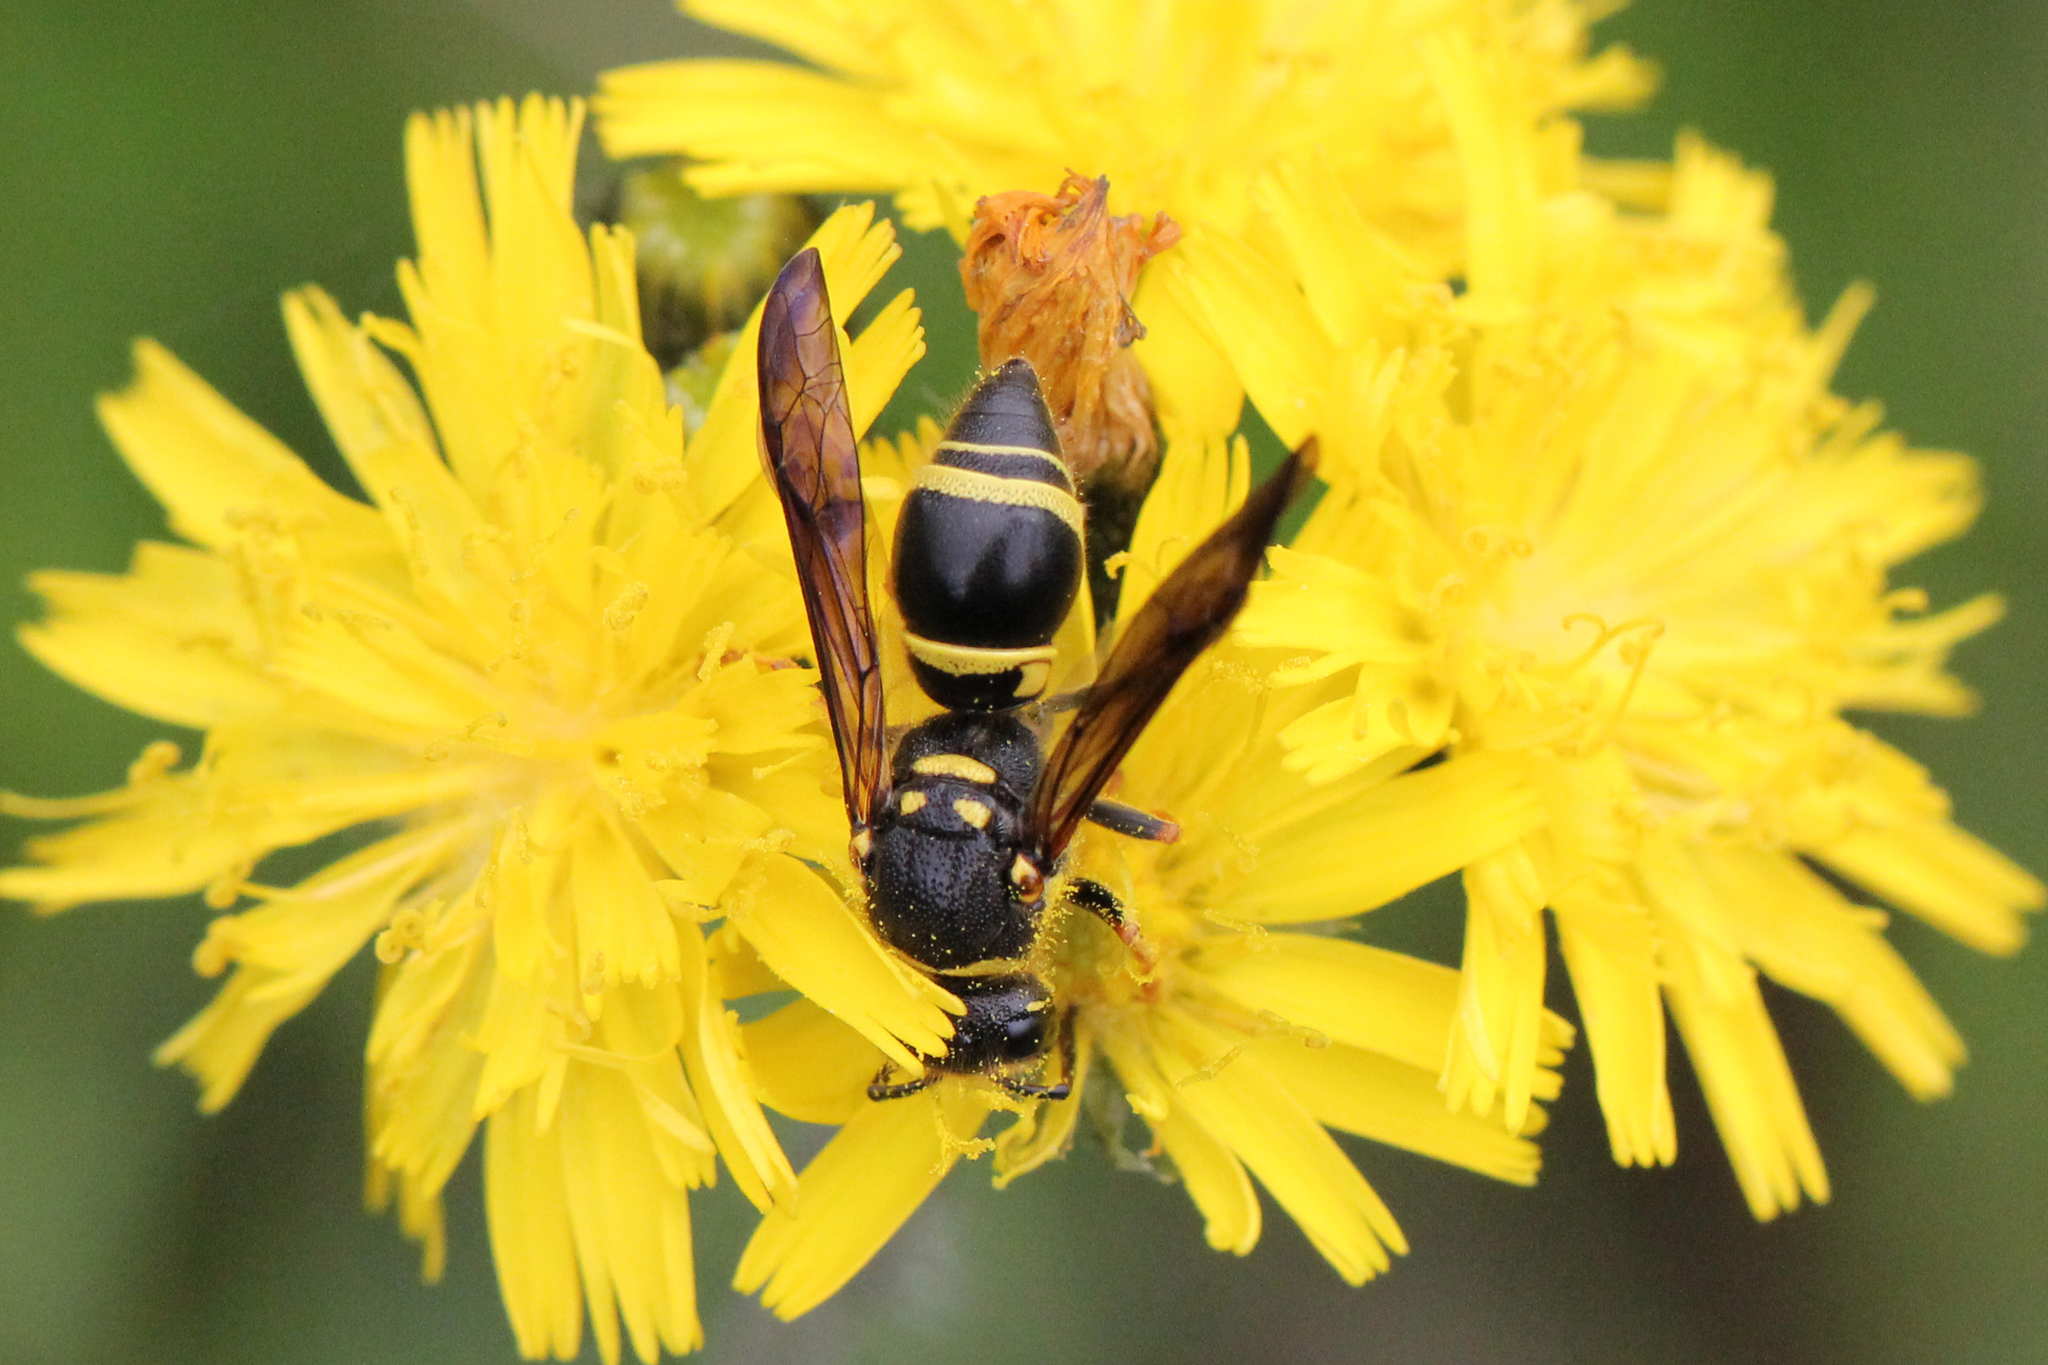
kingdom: Animalia
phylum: Arthropoda
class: Insecta
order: Hymenoptera
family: Vespidae
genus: Ancistrocerus
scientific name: Ancistrocerus campestris
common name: Smiling mason wasp
